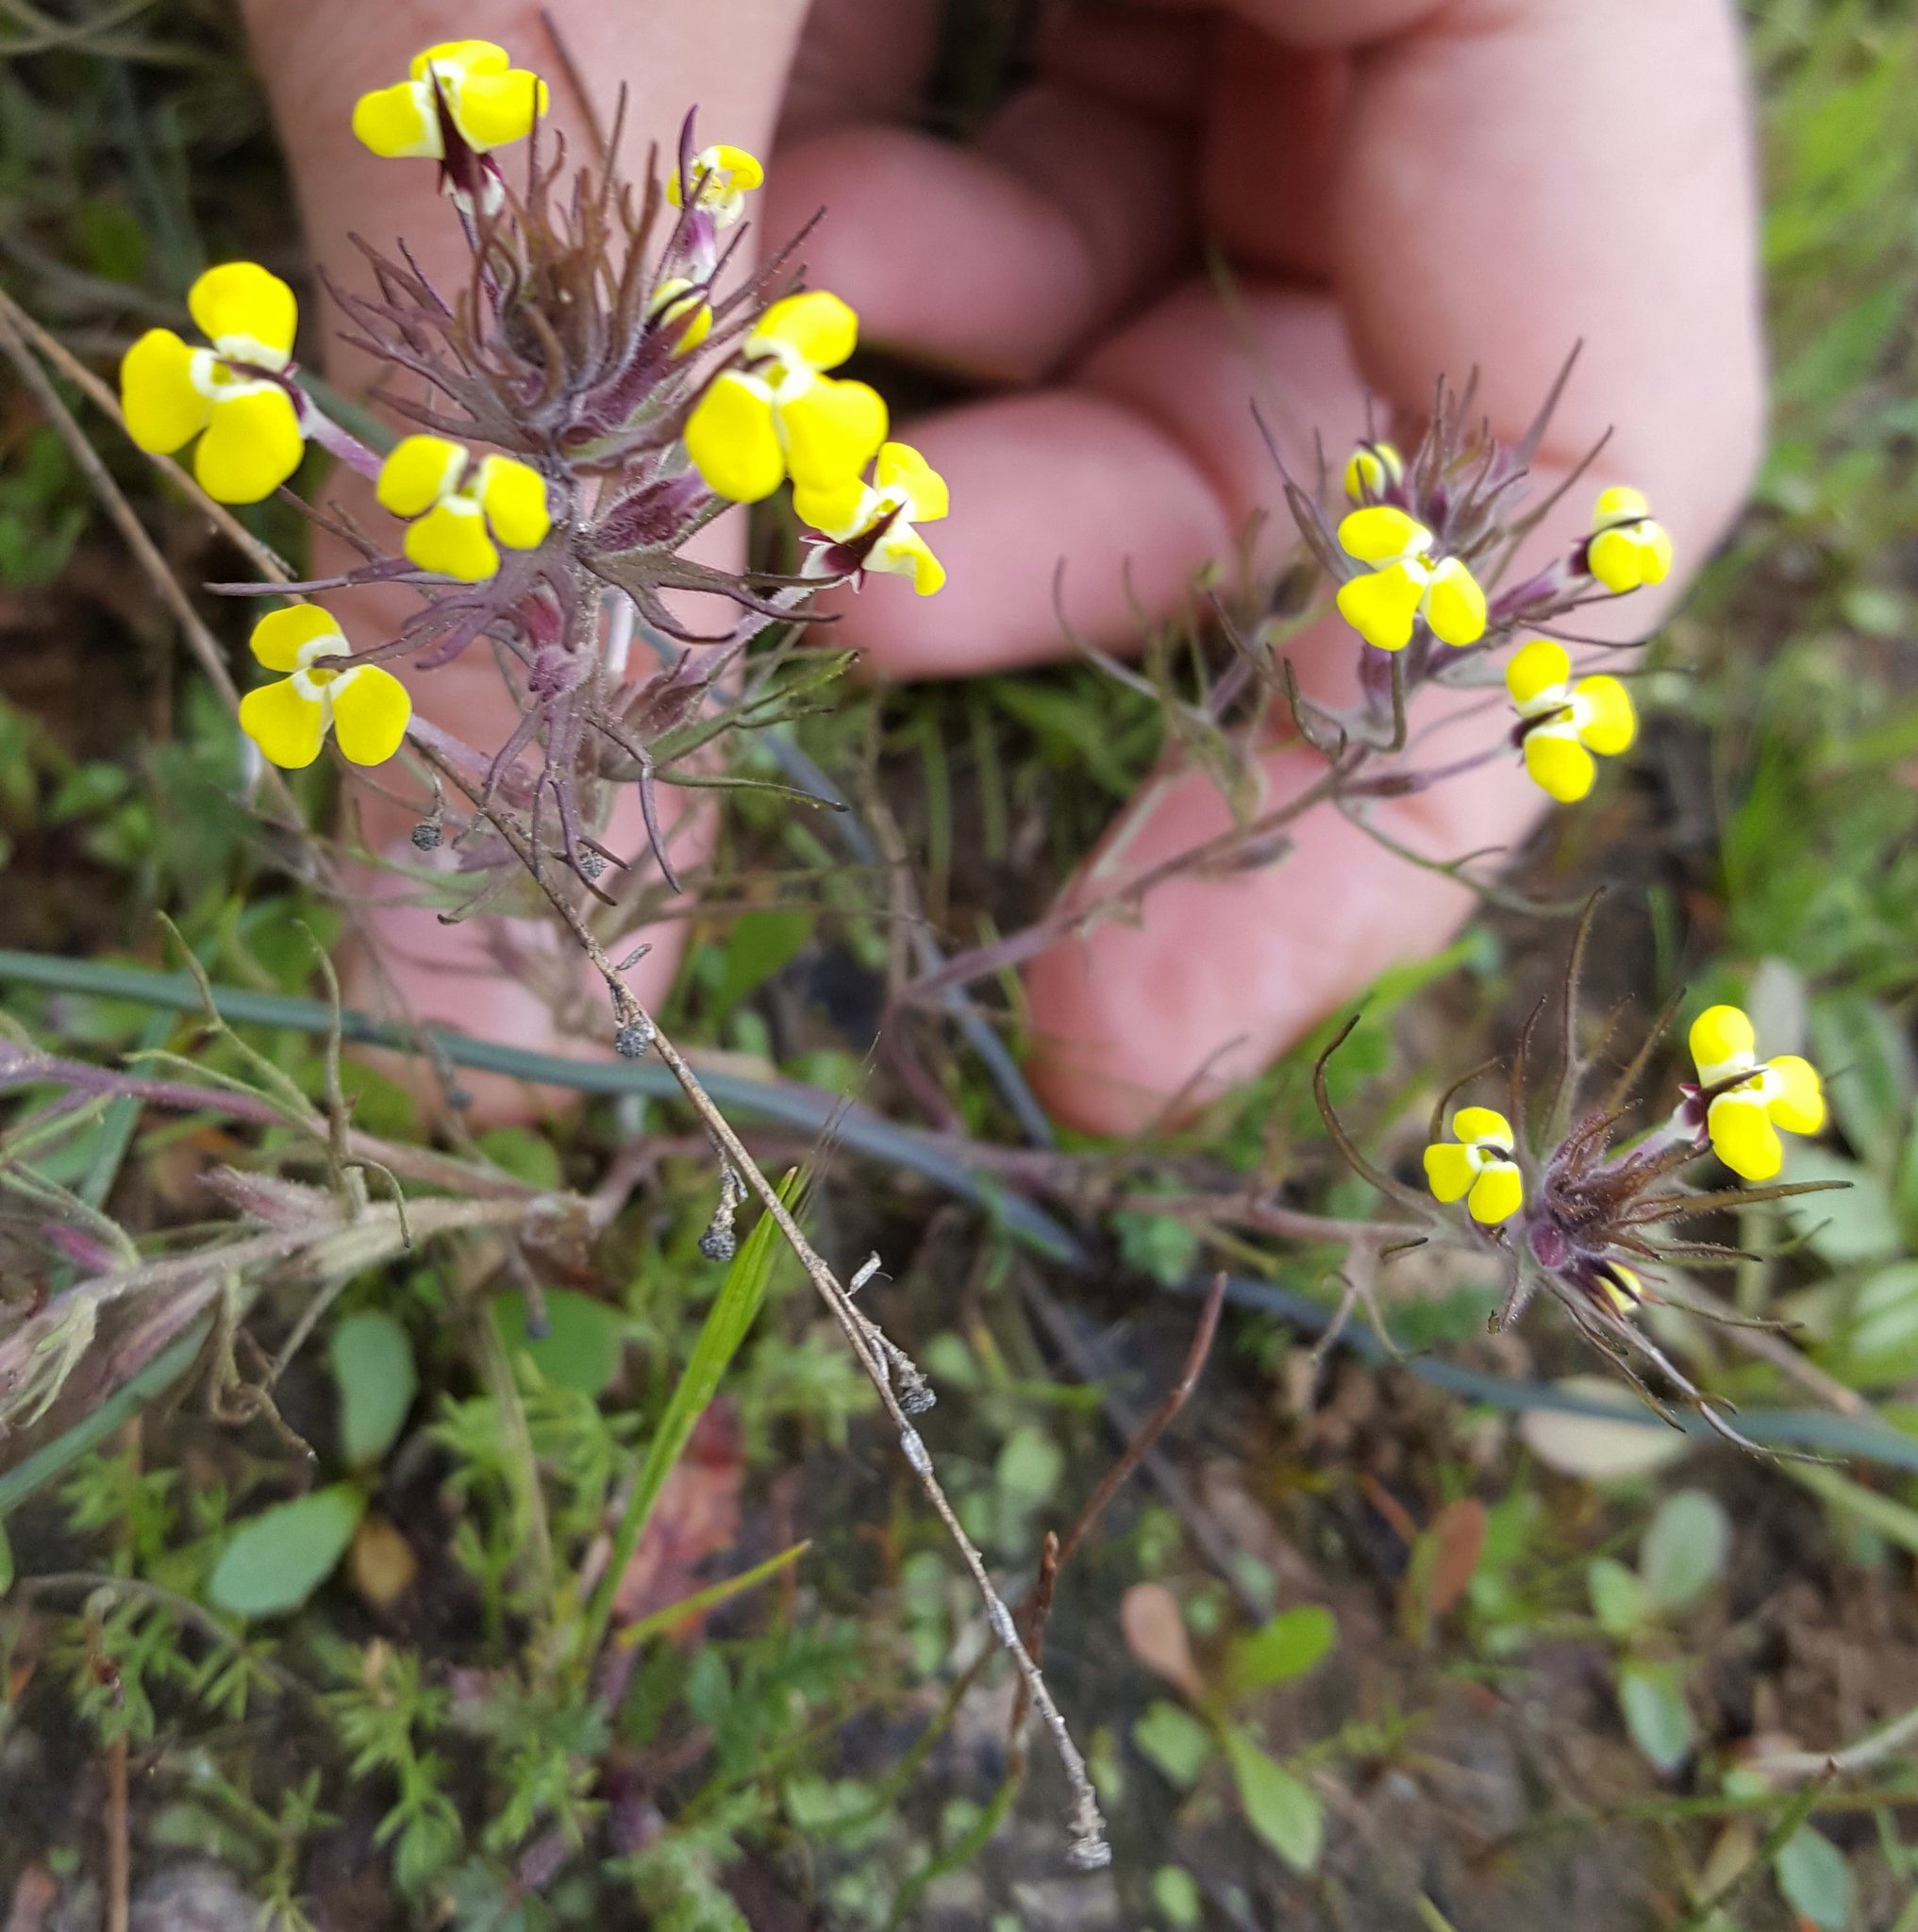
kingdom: Plantae
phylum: Tracheophyta
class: Magnoliopsida
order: Lamiales
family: Orobanchaceae
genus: Triphysaria
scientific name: Triphysaria eriantha
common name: Johnny-tuck
